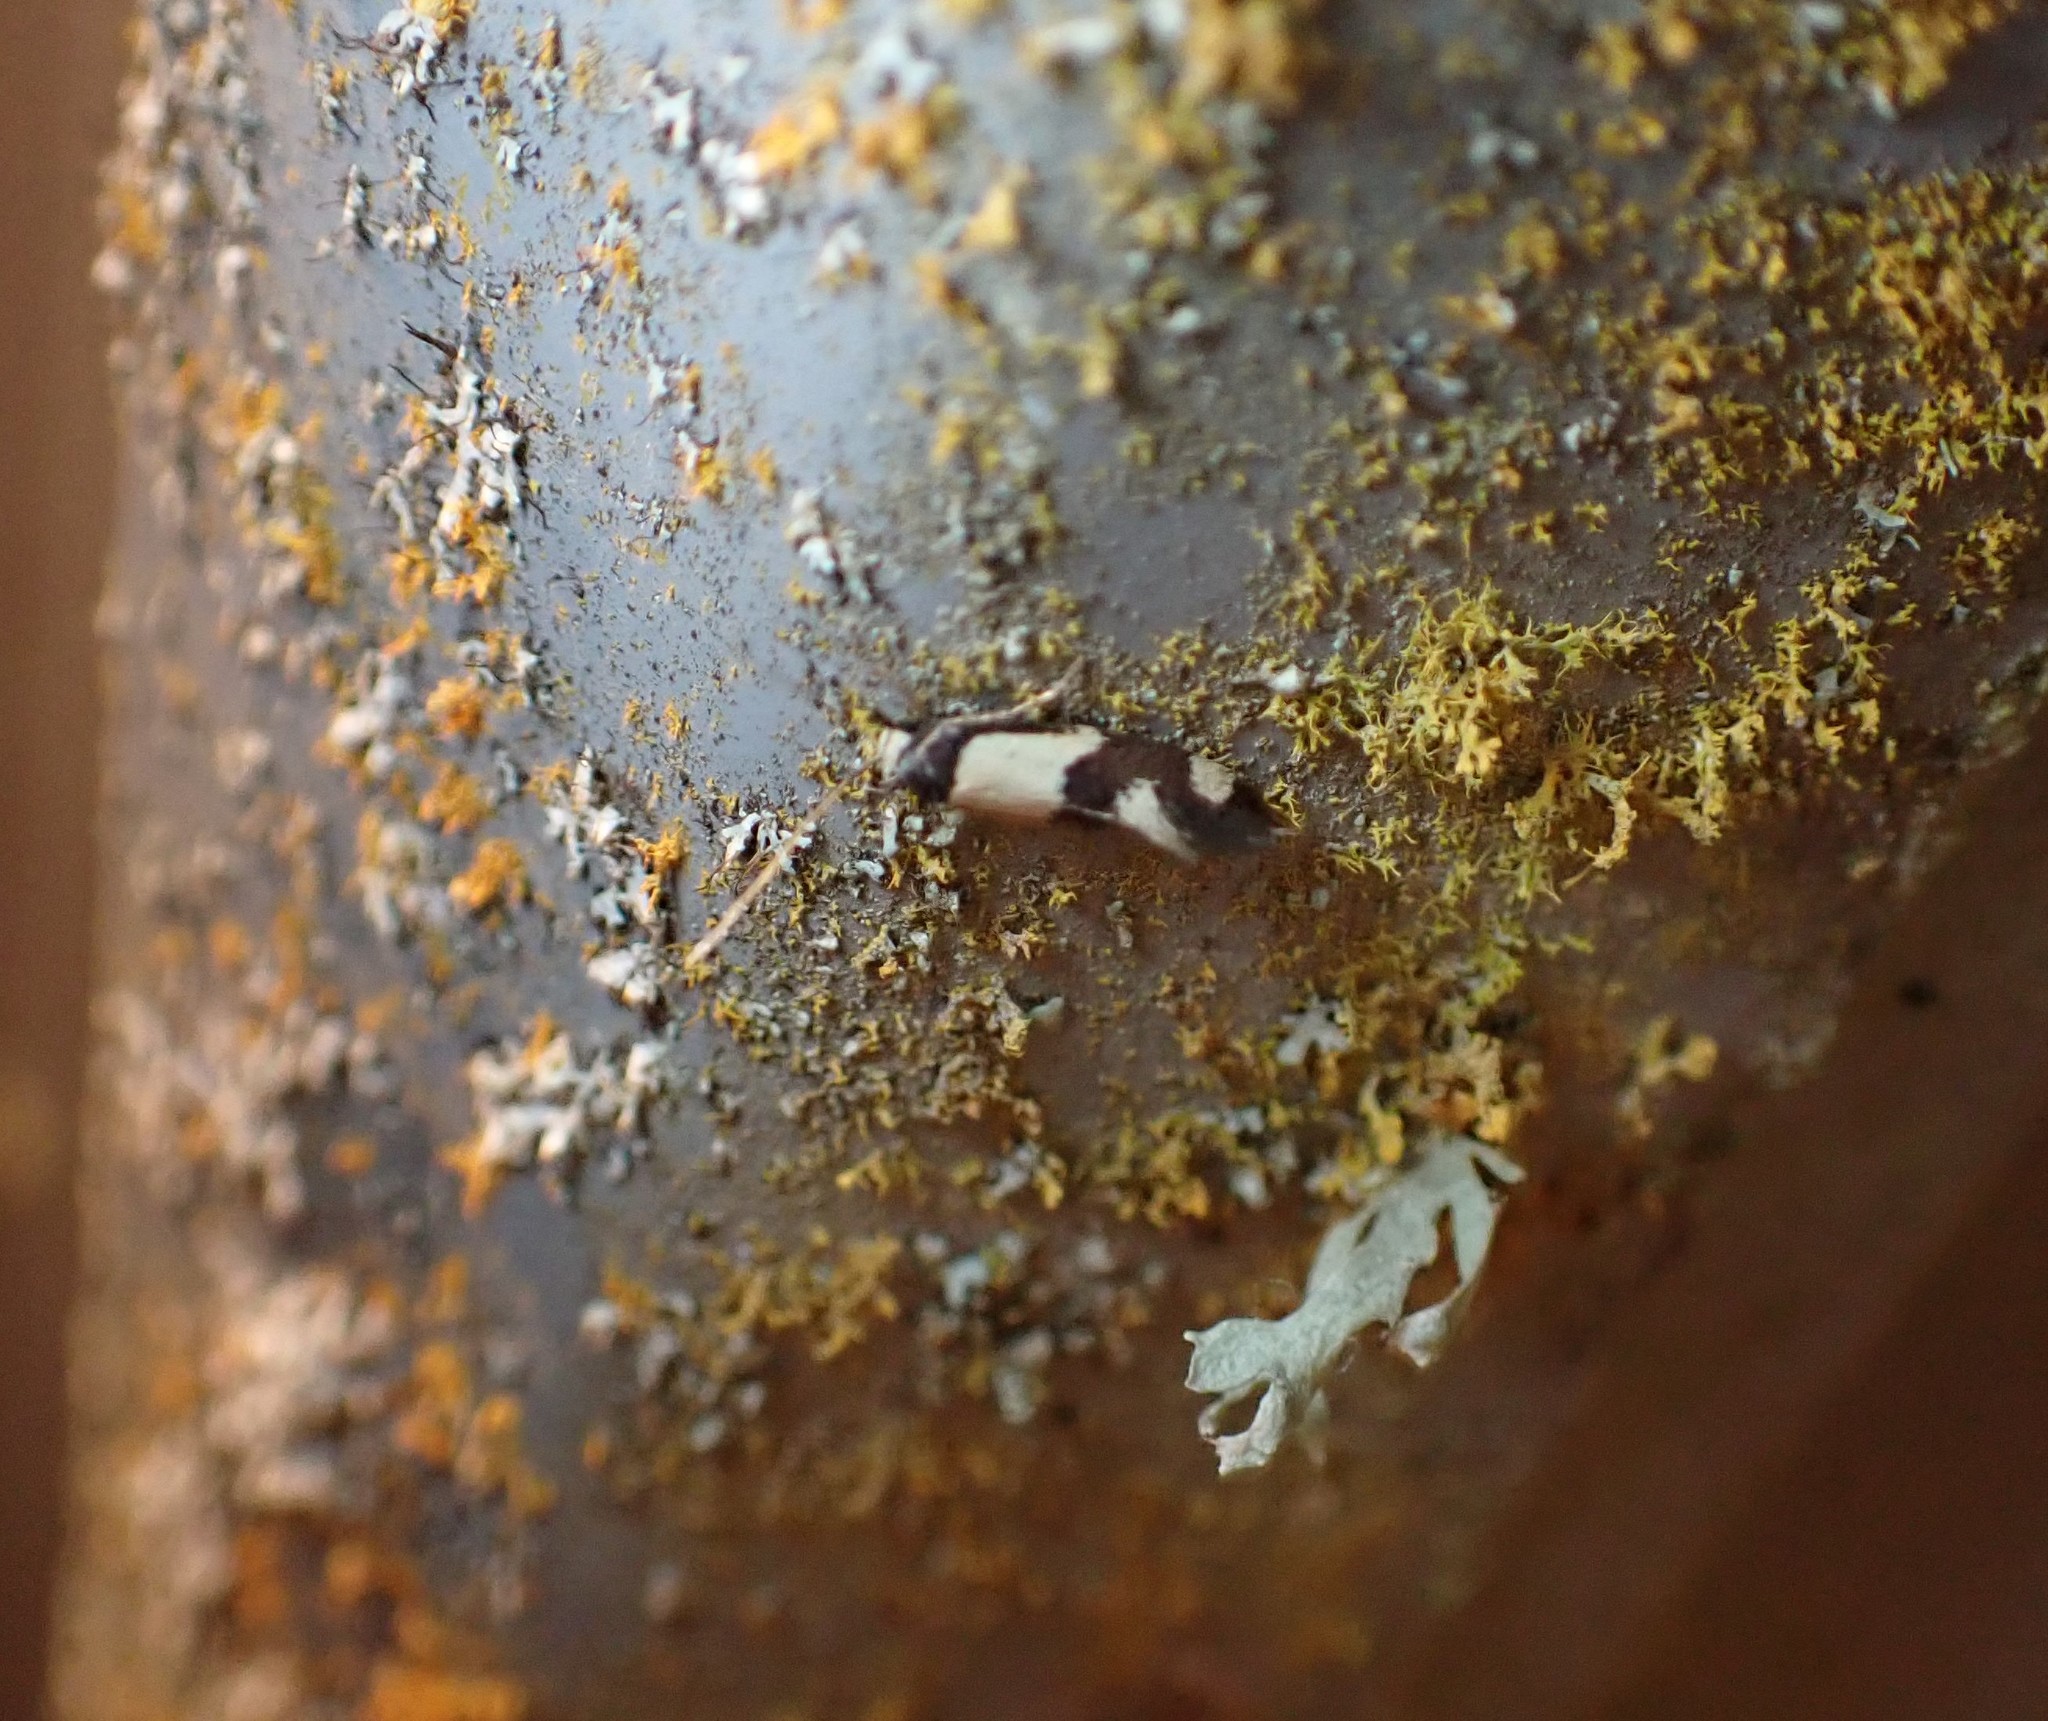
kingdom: Animalia
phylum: Arthropoda
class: Insecta
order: Lepidoptera
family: Tineidae
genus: Opogona
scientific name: Opogona comptella
